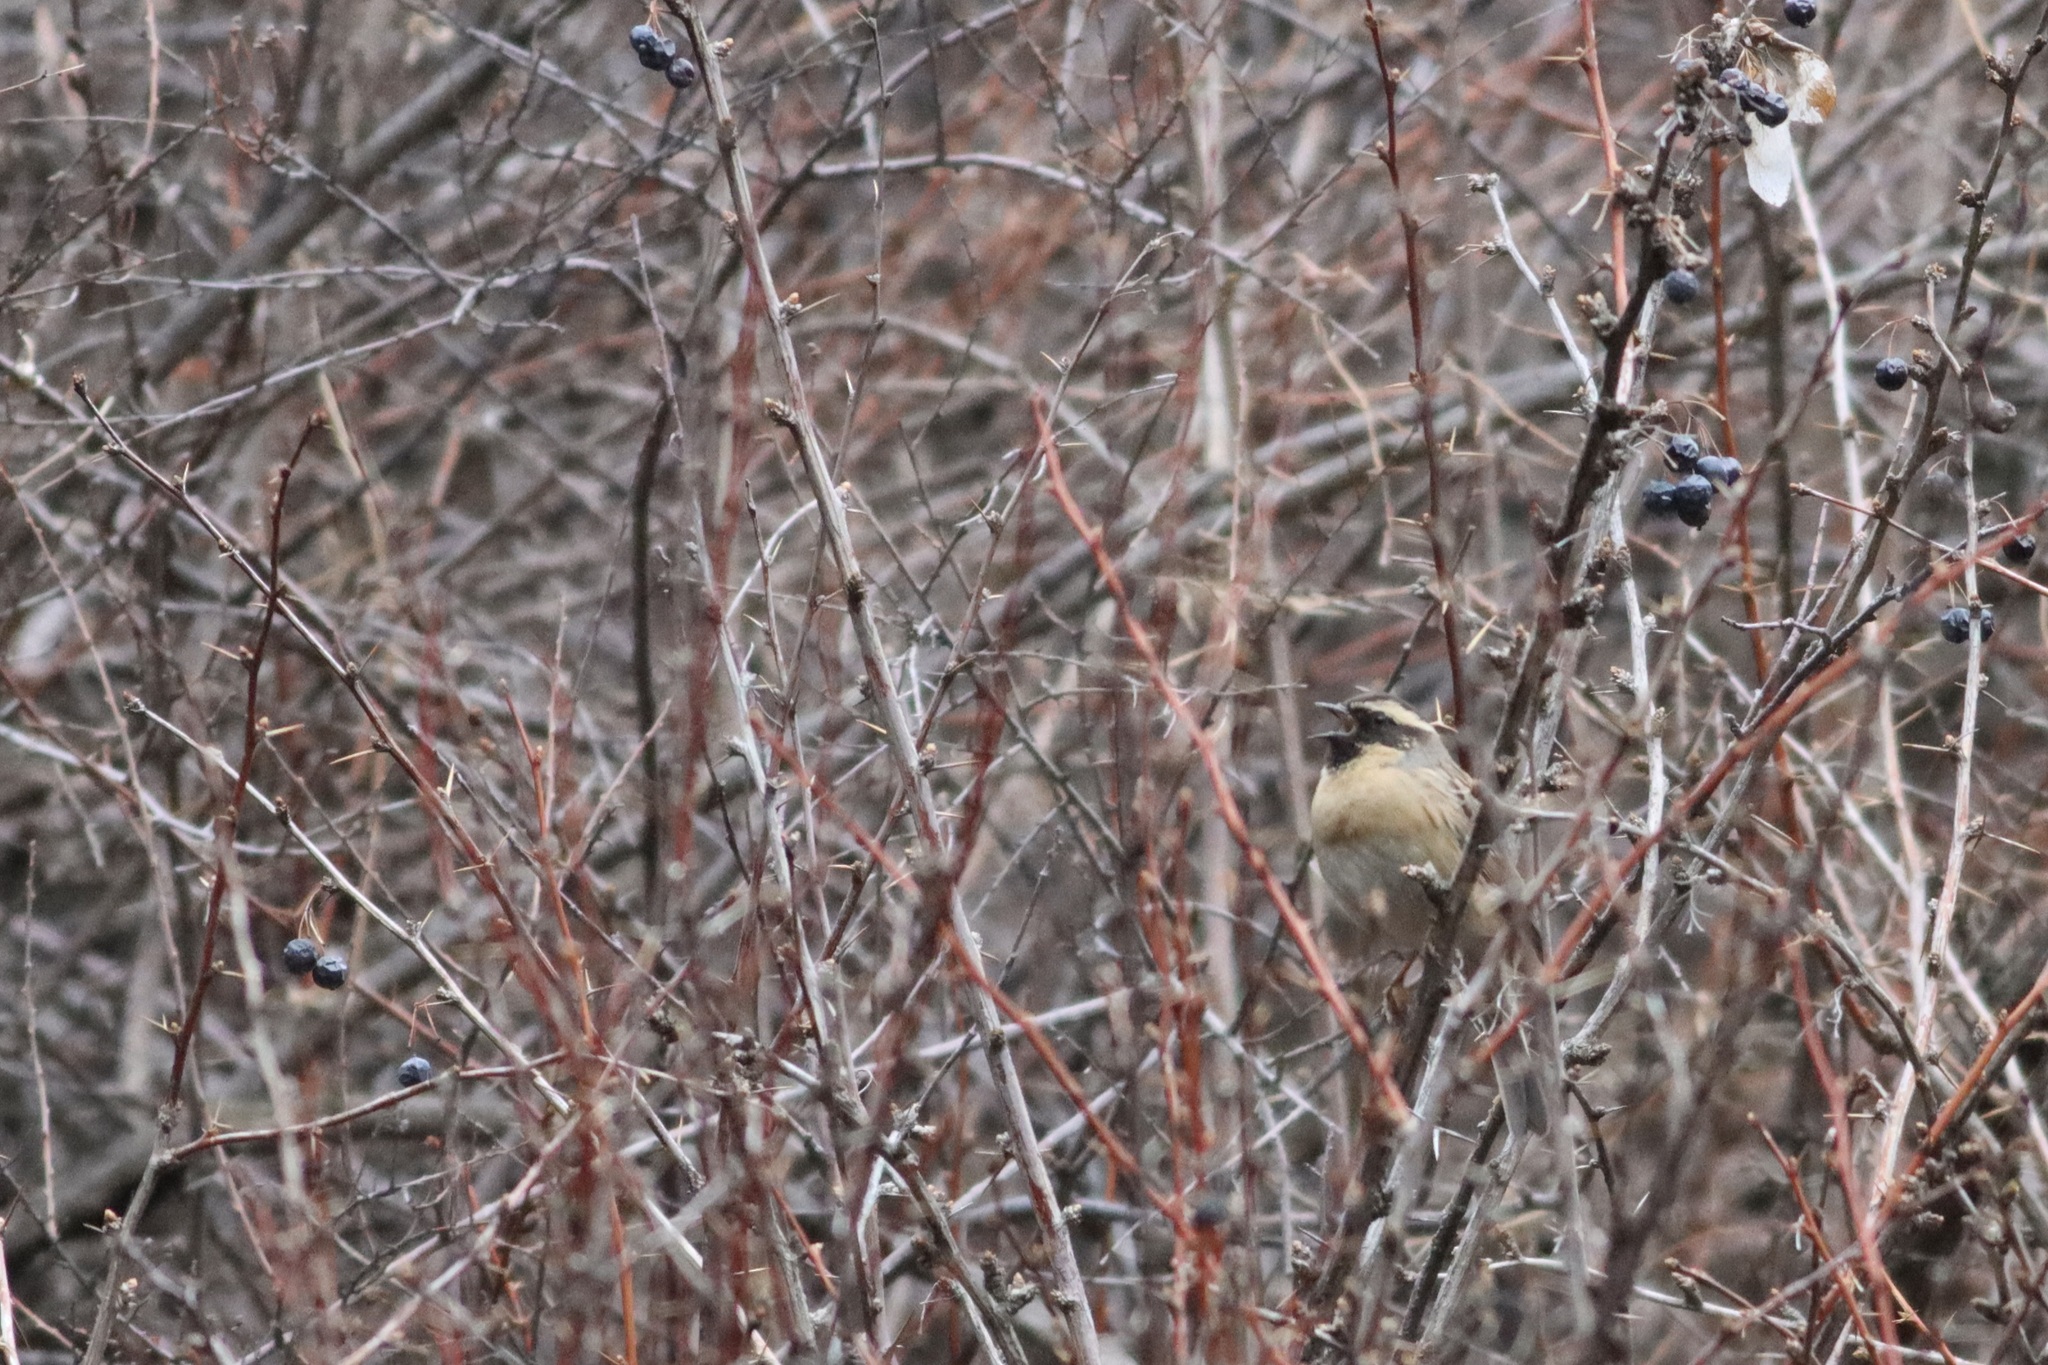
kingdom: Animalia
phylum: Chordata
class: Aves
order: Passeriformes
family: Prunellidae
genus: Prunella
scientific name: Prunella atrogularis
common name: Black-throated accentor
